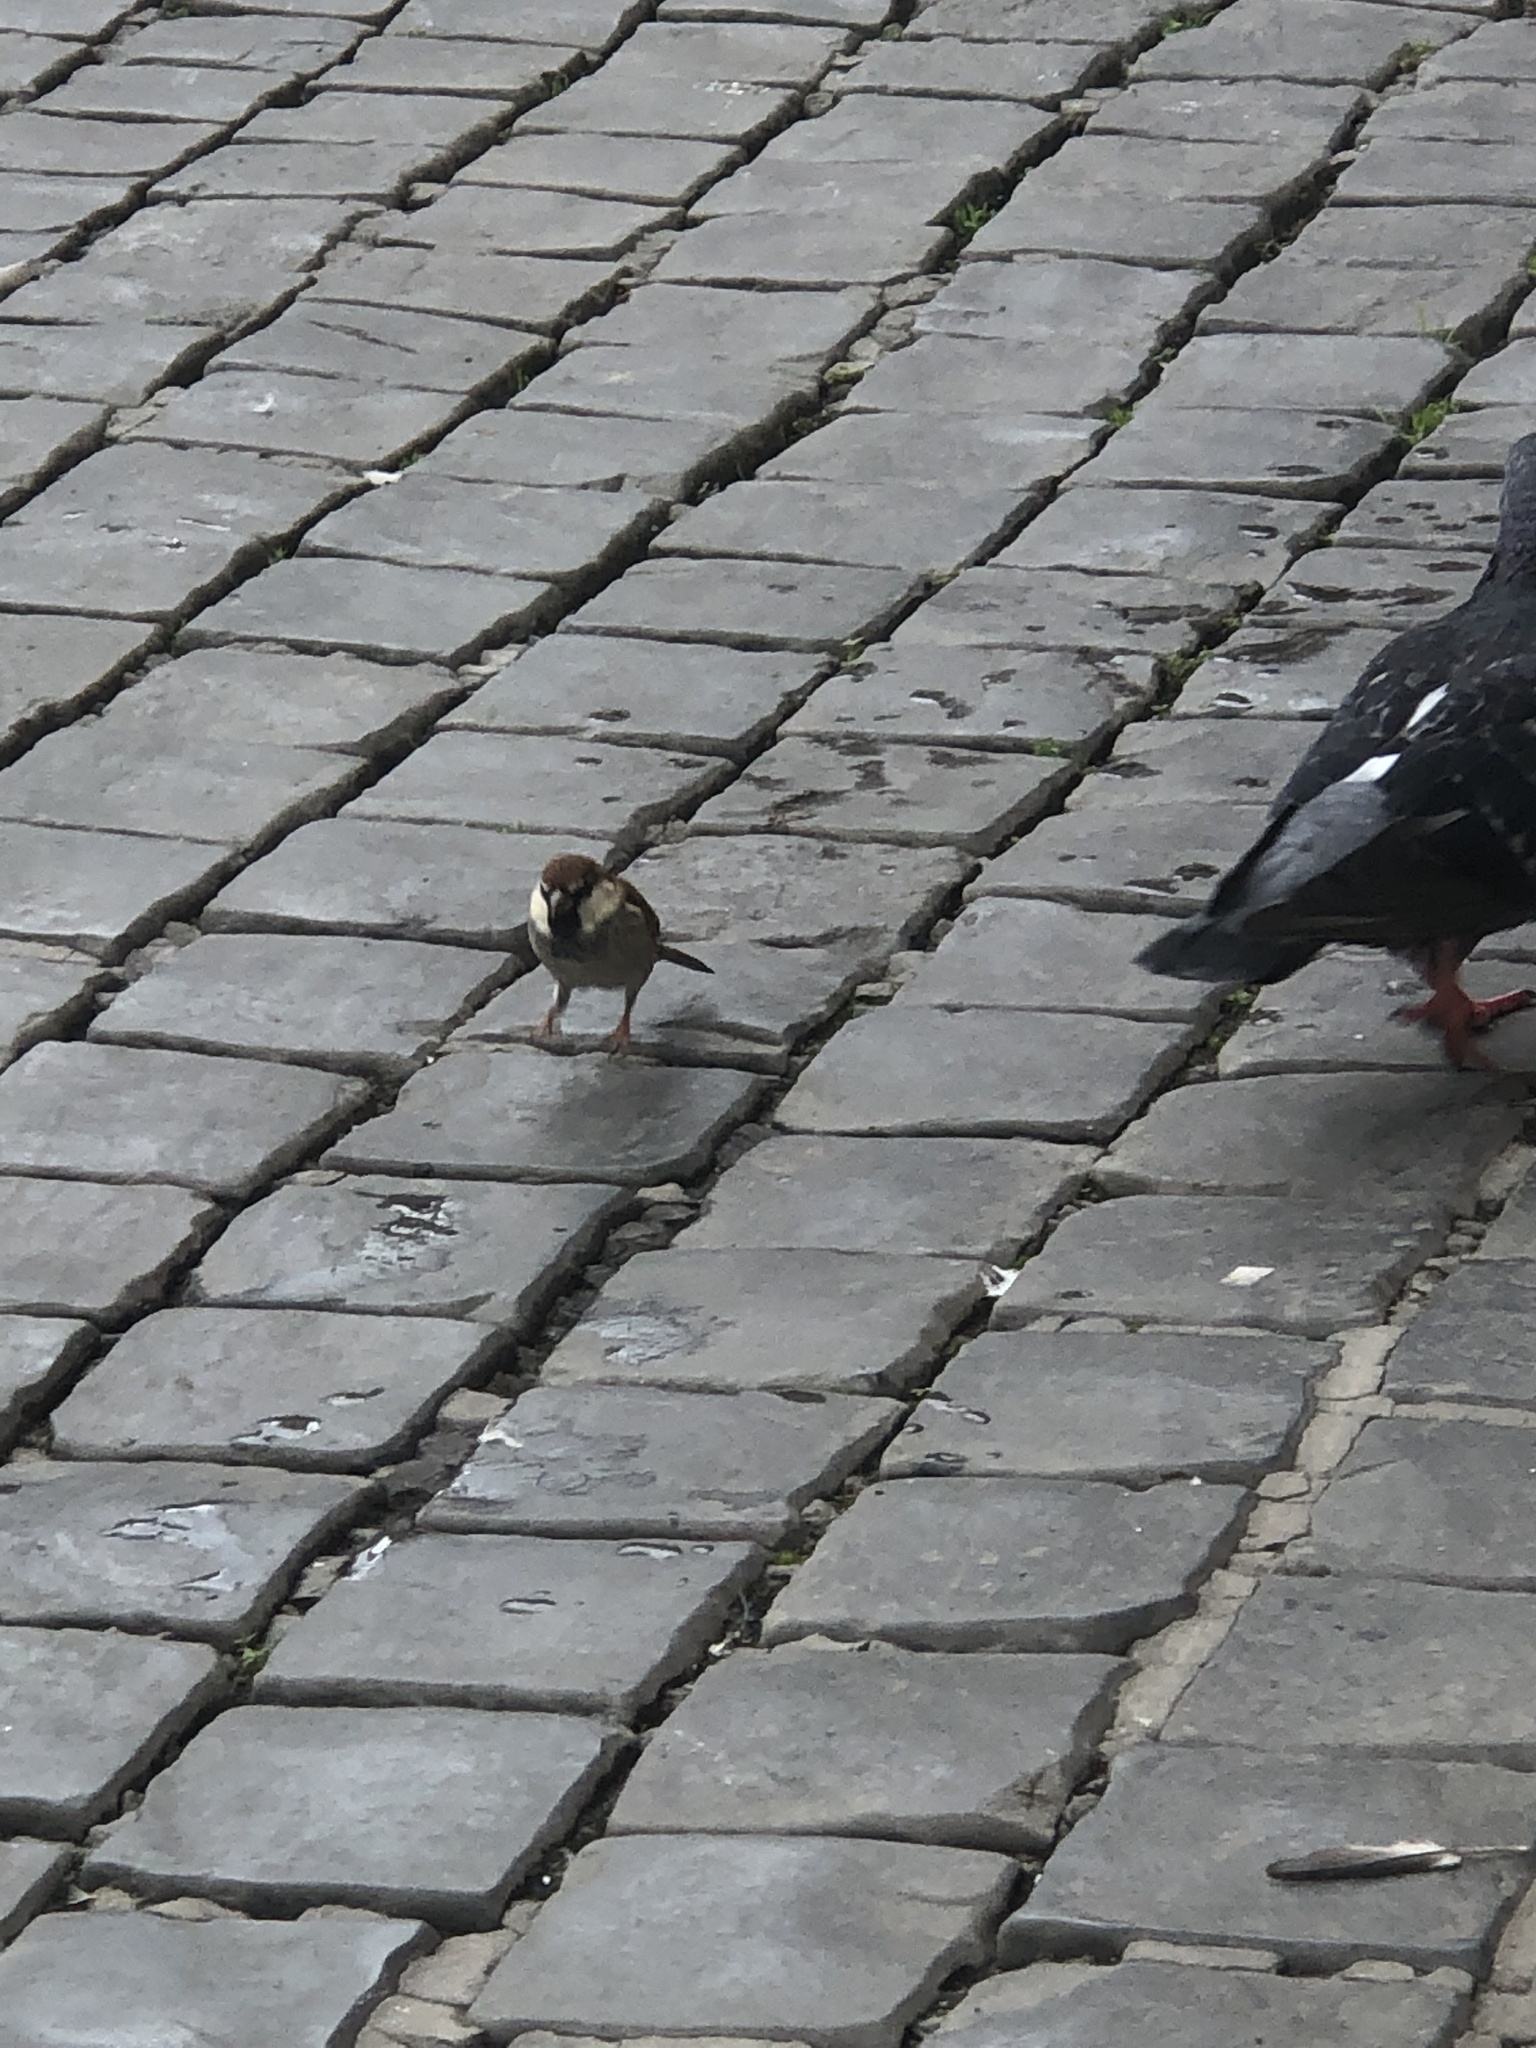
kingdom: Animalia
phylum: Chordata
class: Aves
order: Passeriformes
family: Passeridae
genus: Passer
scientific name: Passer italiae
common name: Italian sparrow
